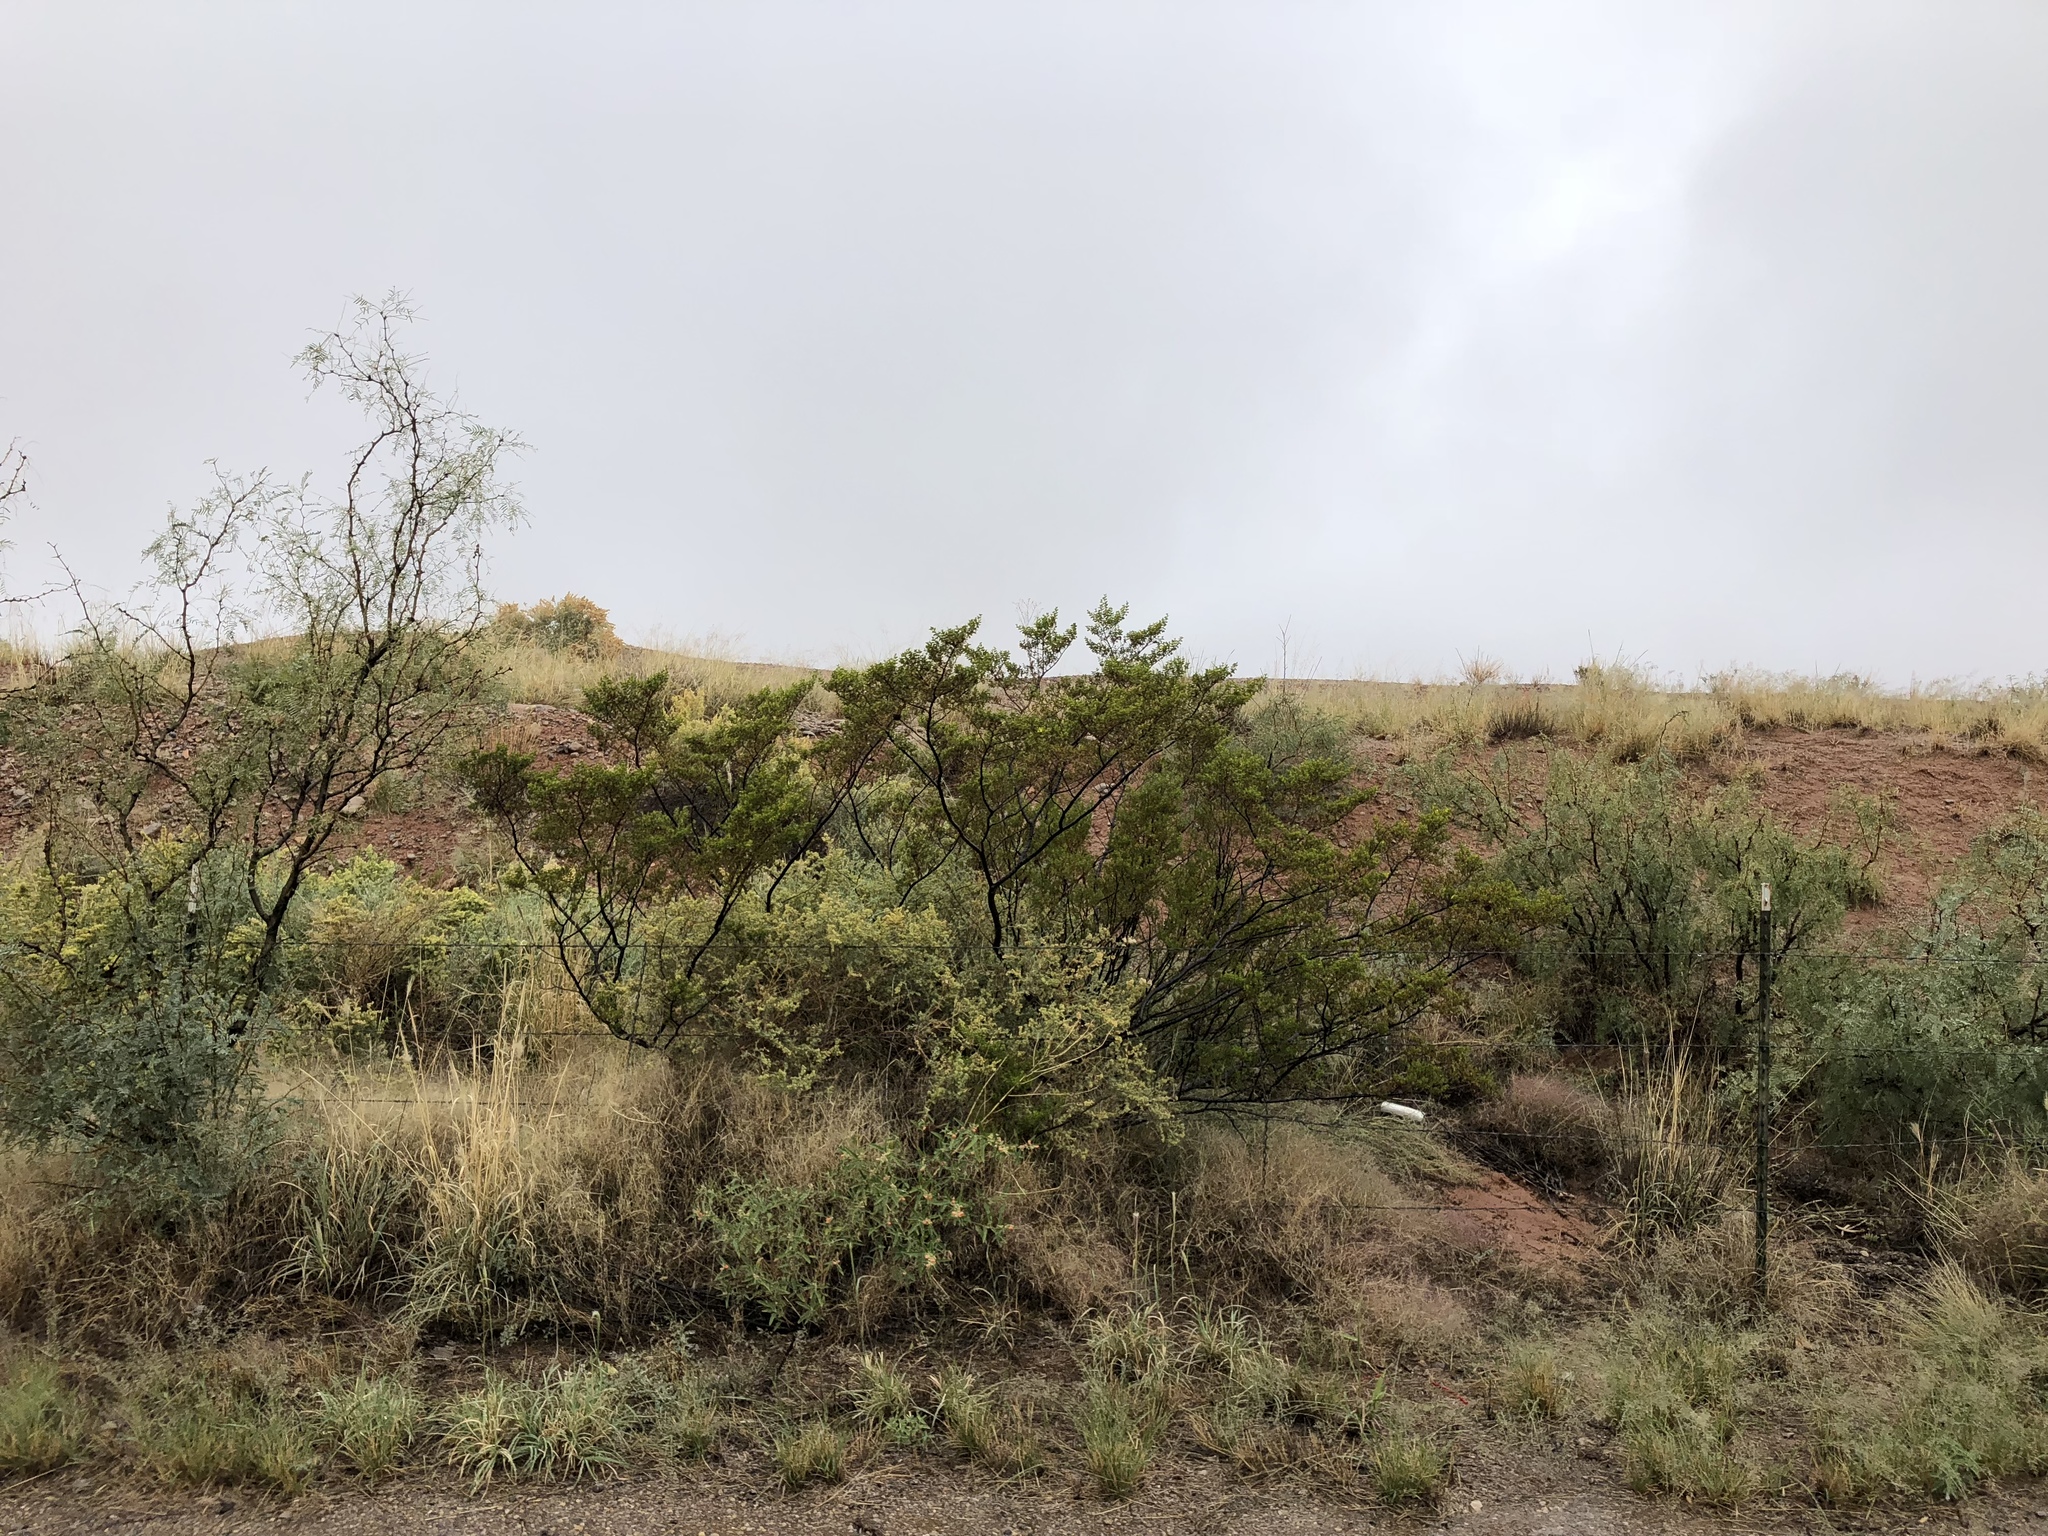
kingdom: Plantae
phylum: Tracheophyta
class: Magnoliopsida
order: Zygophyllales
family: Zygophyllaceae
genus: Larrea
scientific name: Larrea tridentata
